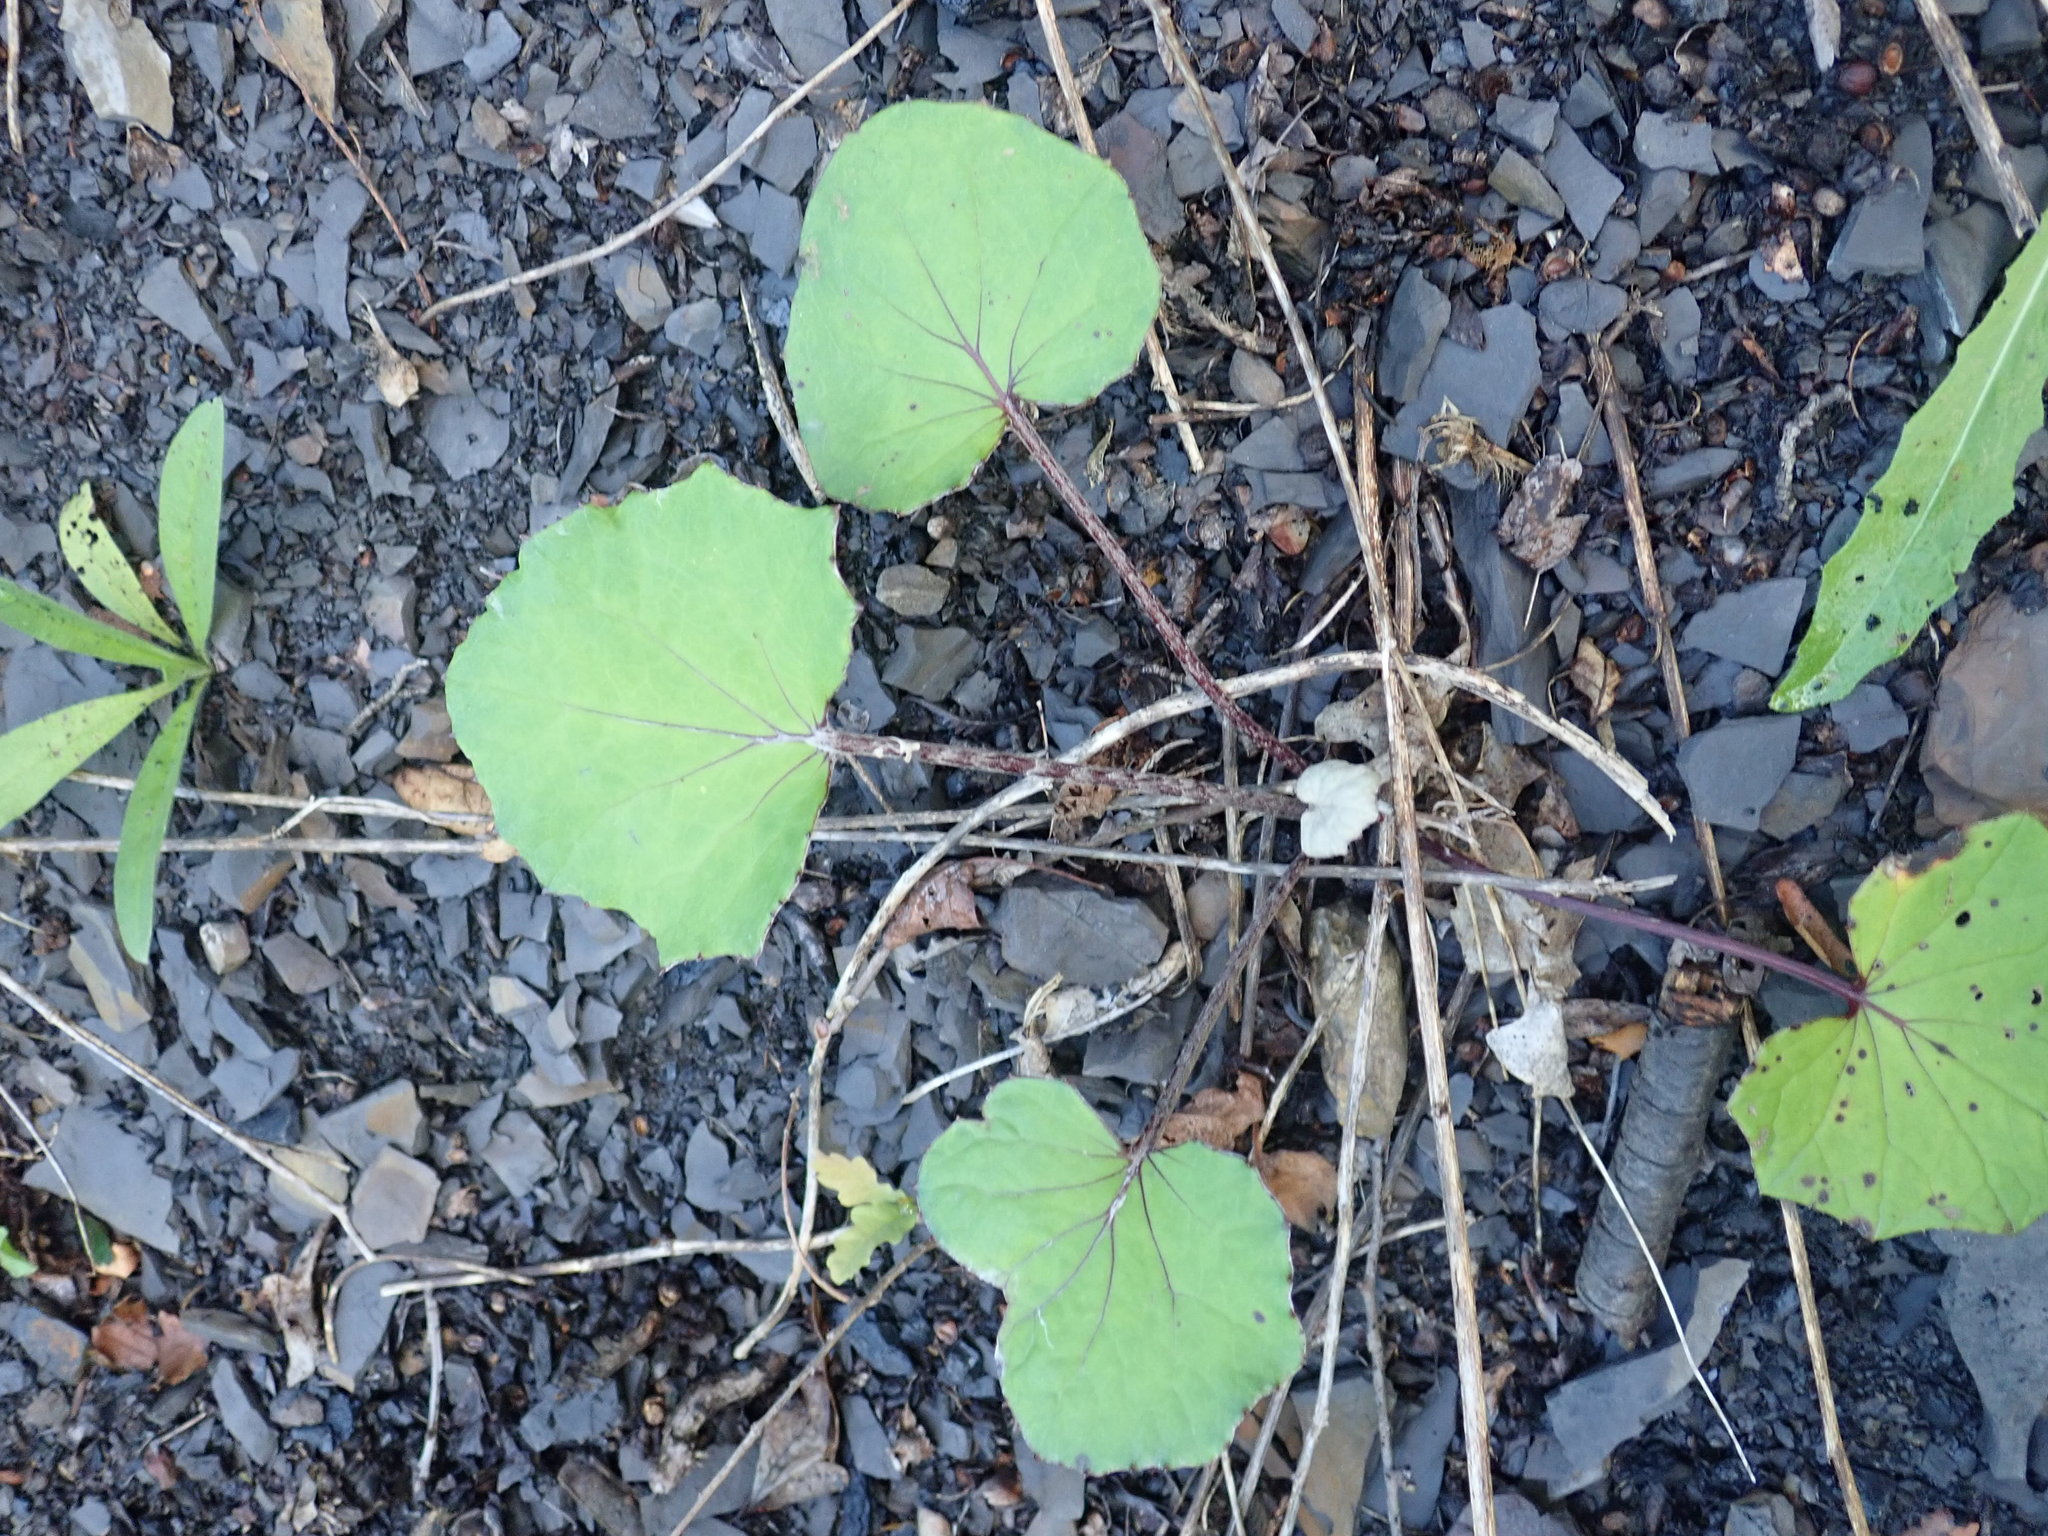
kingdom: Plantae
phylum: Tracheophyta
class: Magnoliopsida
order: Asterales
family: Asteraceae
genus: Tussilago
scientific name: Tussilago farfara
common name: Coltsfoot
